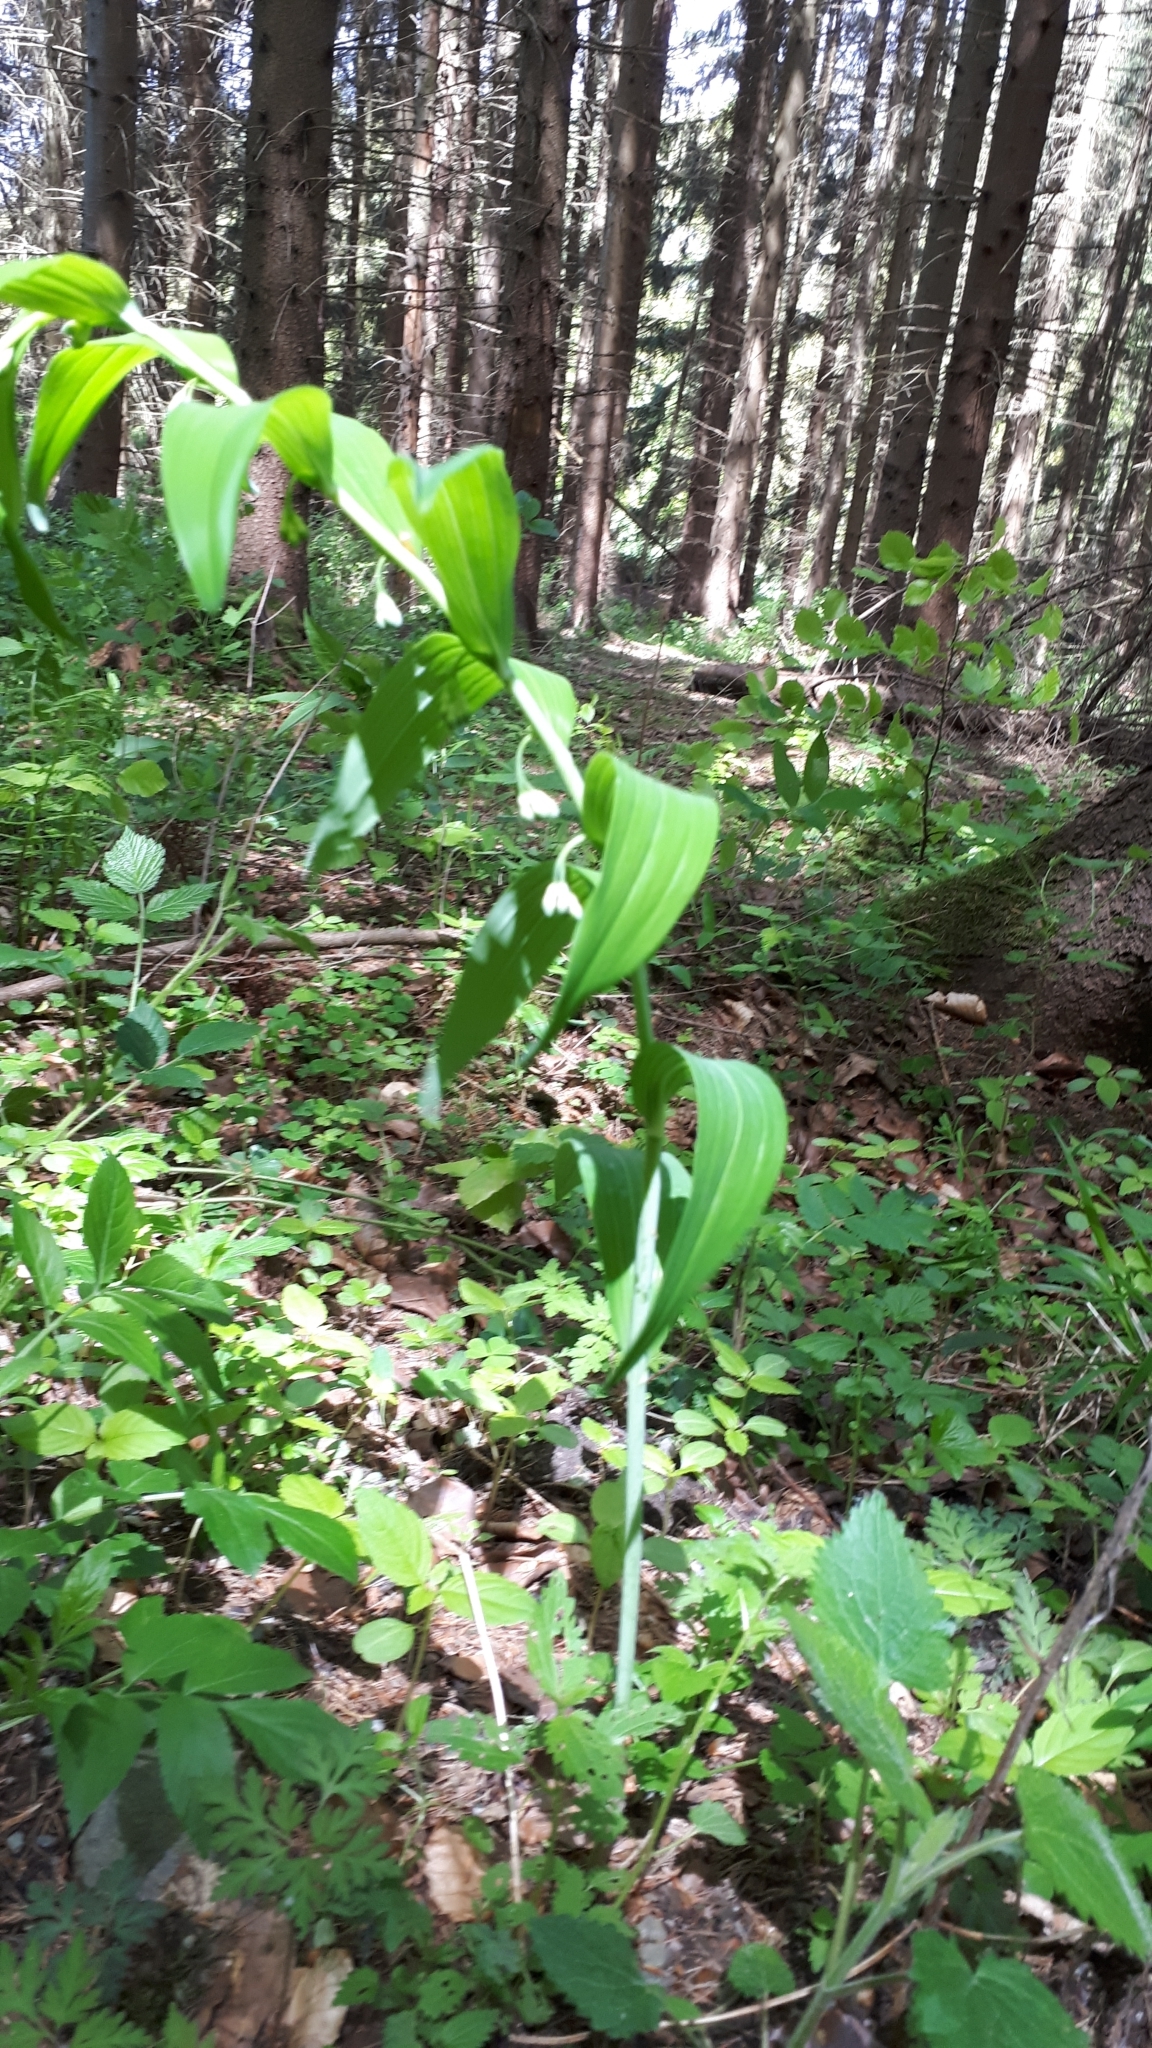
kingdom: Plantae
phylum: Tracheophyta
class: Liliopsida
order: Asparagales
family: Asparagaceae
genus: Polygonatum
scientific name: Polygonatum multiflorum
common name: Solomon's-seal
